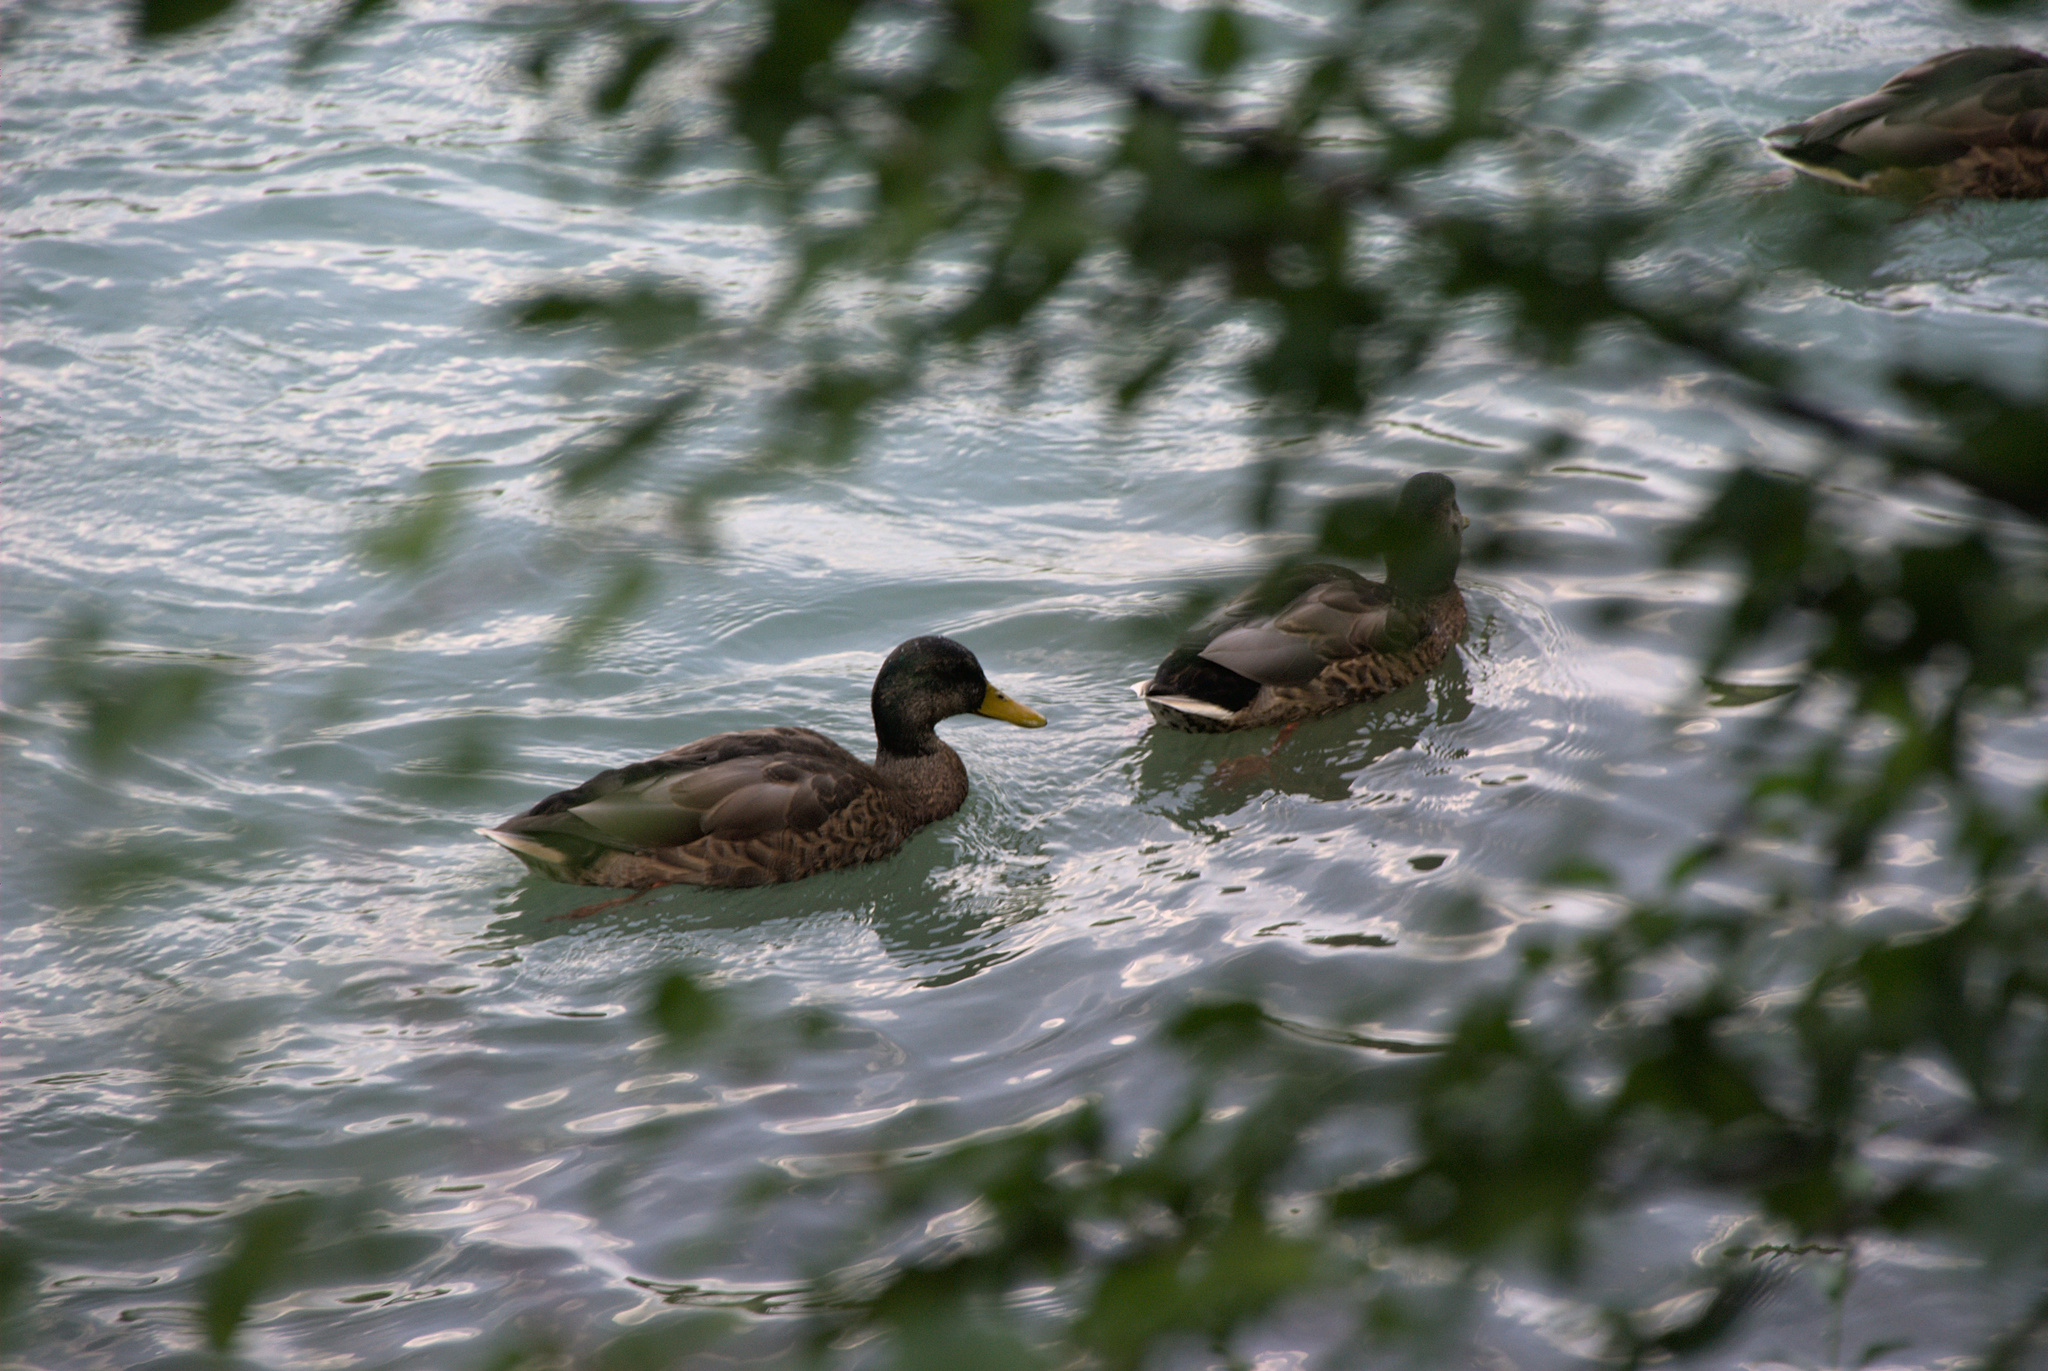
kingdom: Animalia
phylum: Chordata
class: Aves
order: Anseriformes
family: Anatidae
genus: Anas
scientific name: Anas platyrhynchos
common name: Mallard
